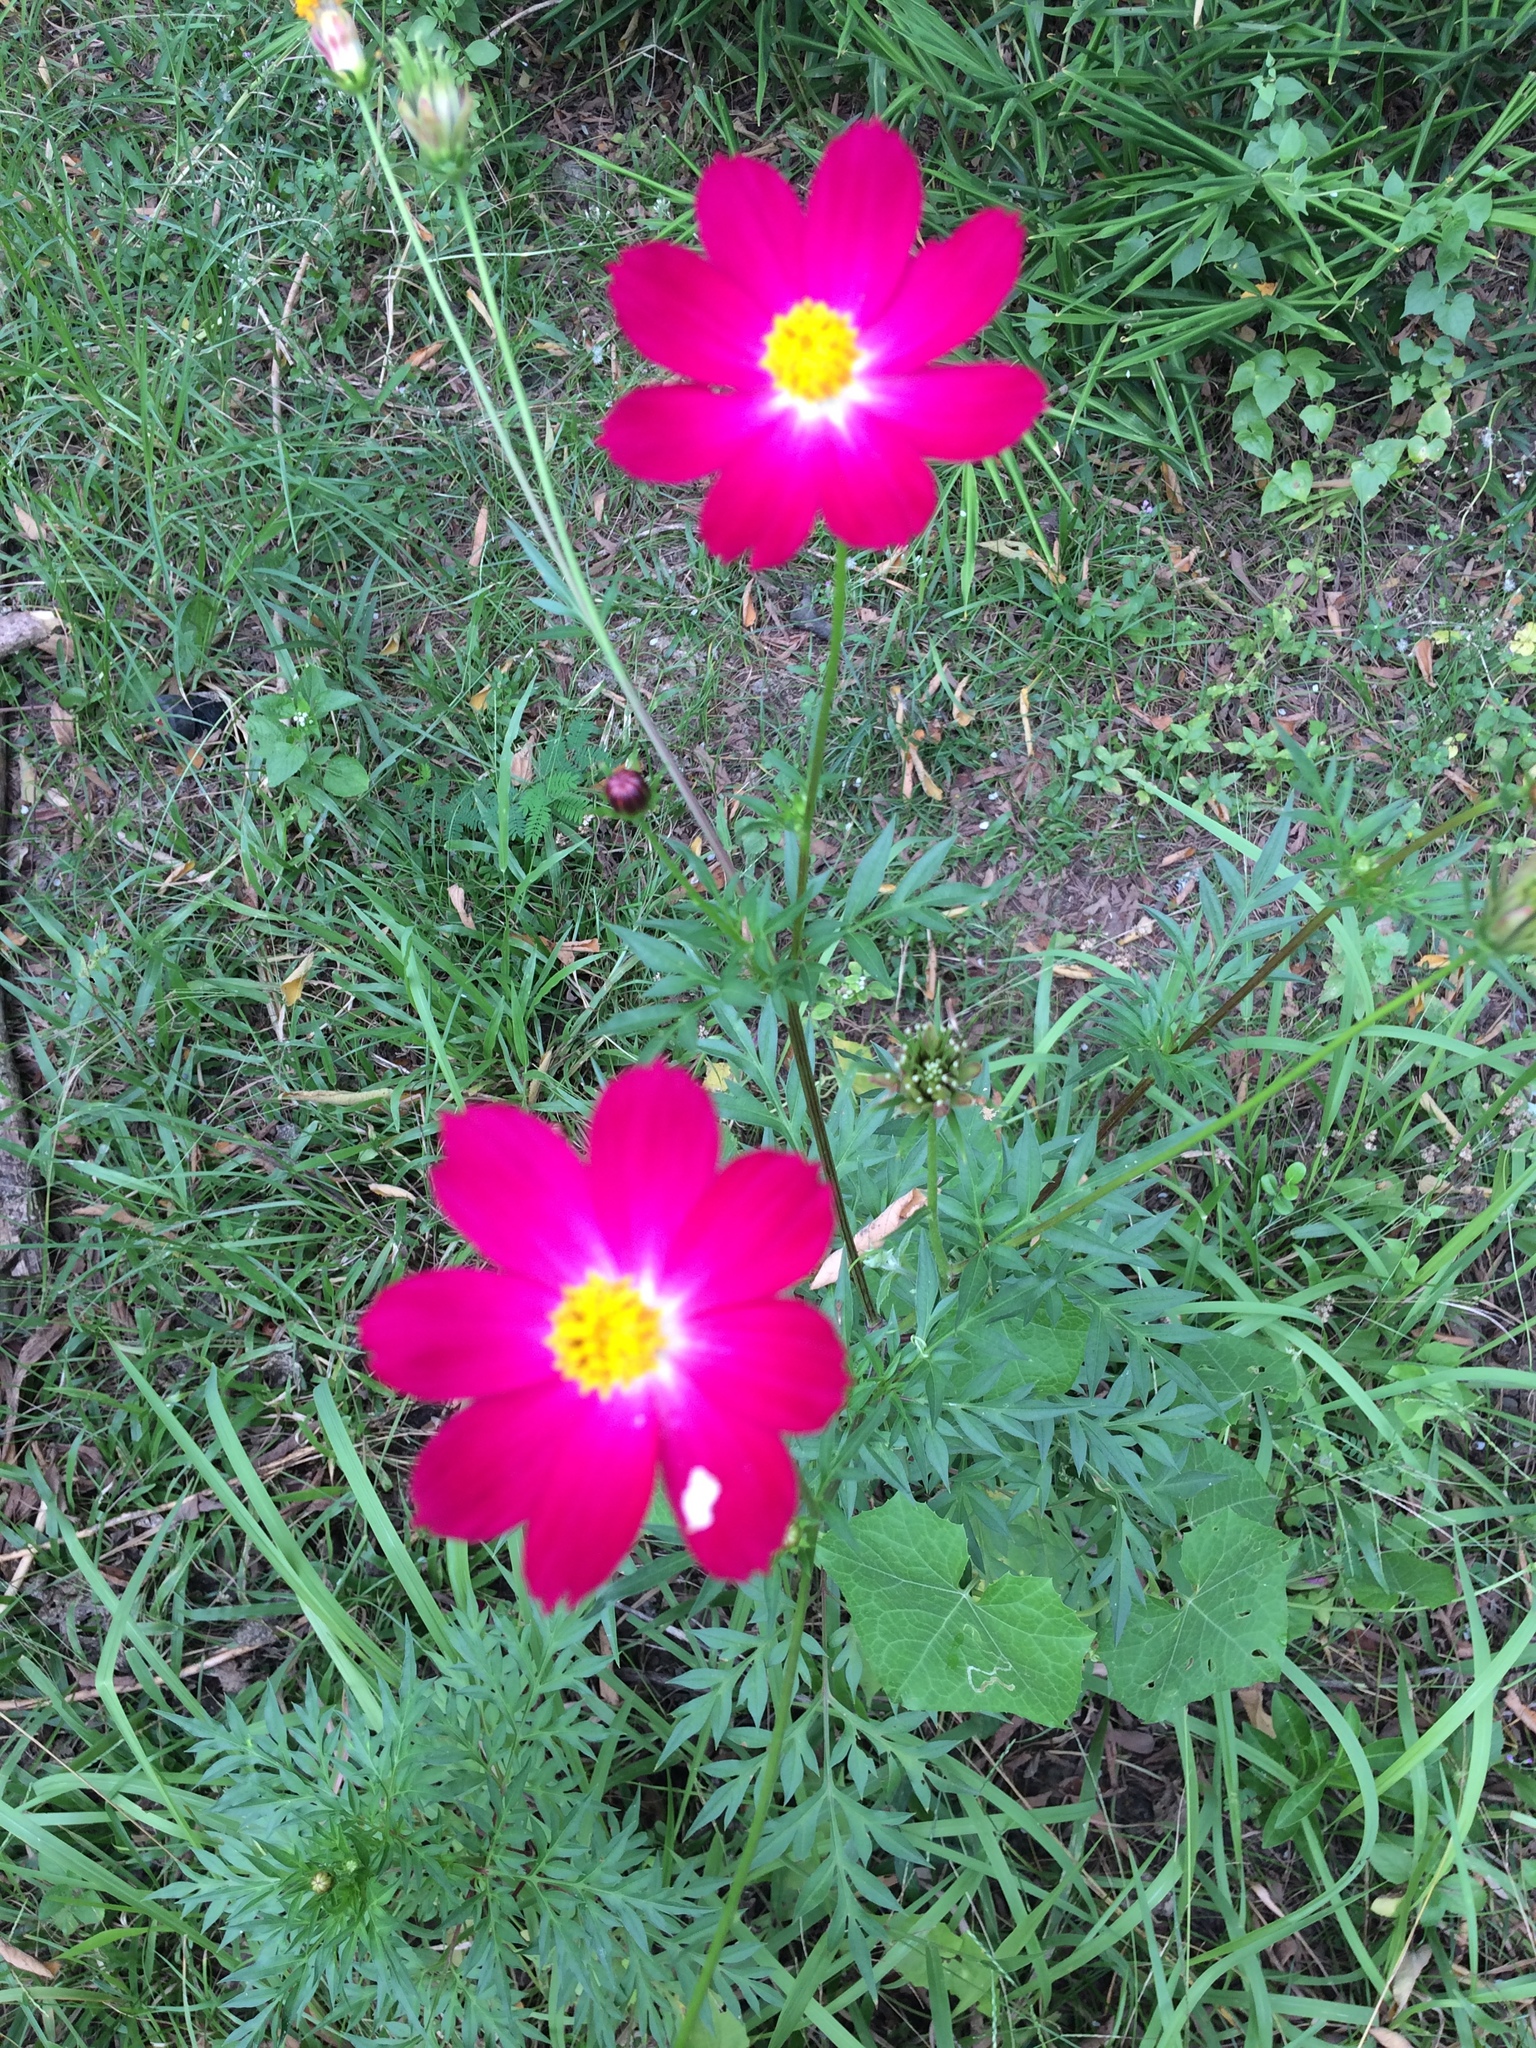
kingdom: Plantae
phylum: Tracheophyta
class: Magnoliopsida
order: Asterales
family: Asteraceae
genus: Cosmos
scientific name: Cosmos bipinnatus
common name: Garden cosmos
